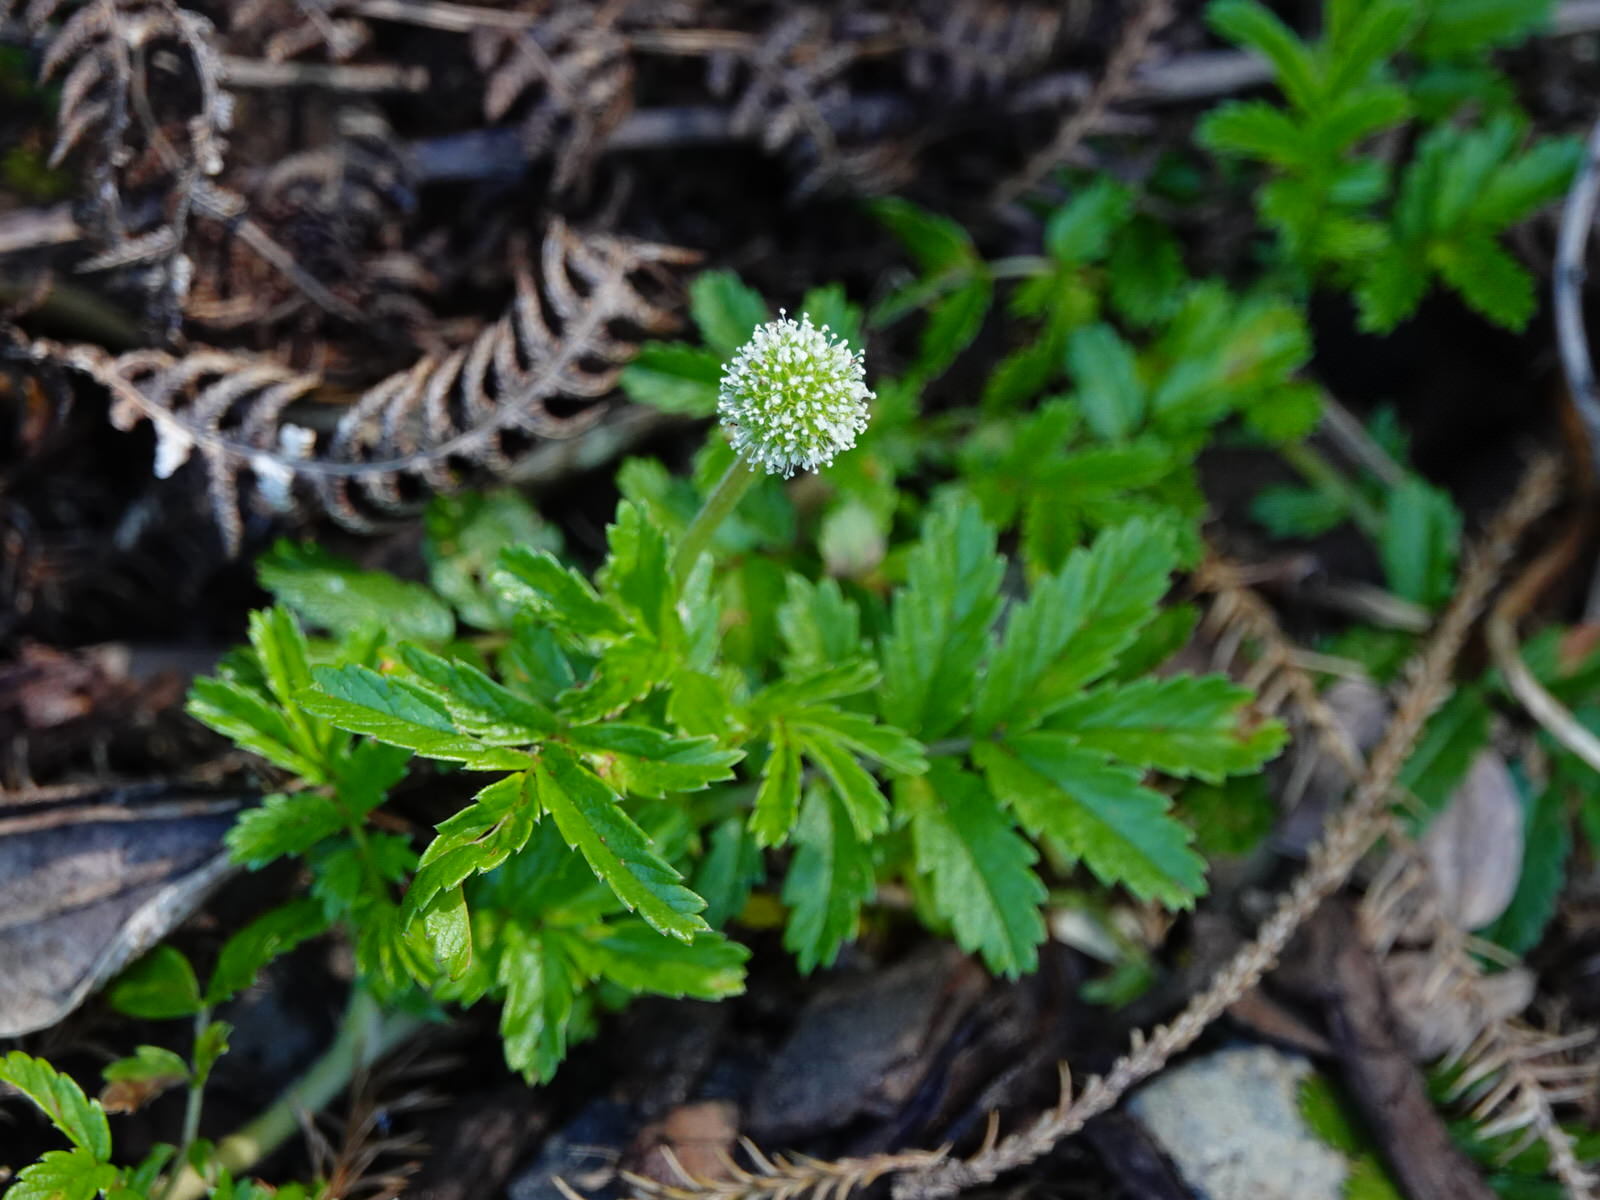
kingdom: Plantae
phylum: Tracheophyta
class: Magnoliopsida
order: Rosales
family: Rosaceae
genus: Acaena
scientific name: Acaena novae-zelandiae
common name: Pirri-pirri-bur
